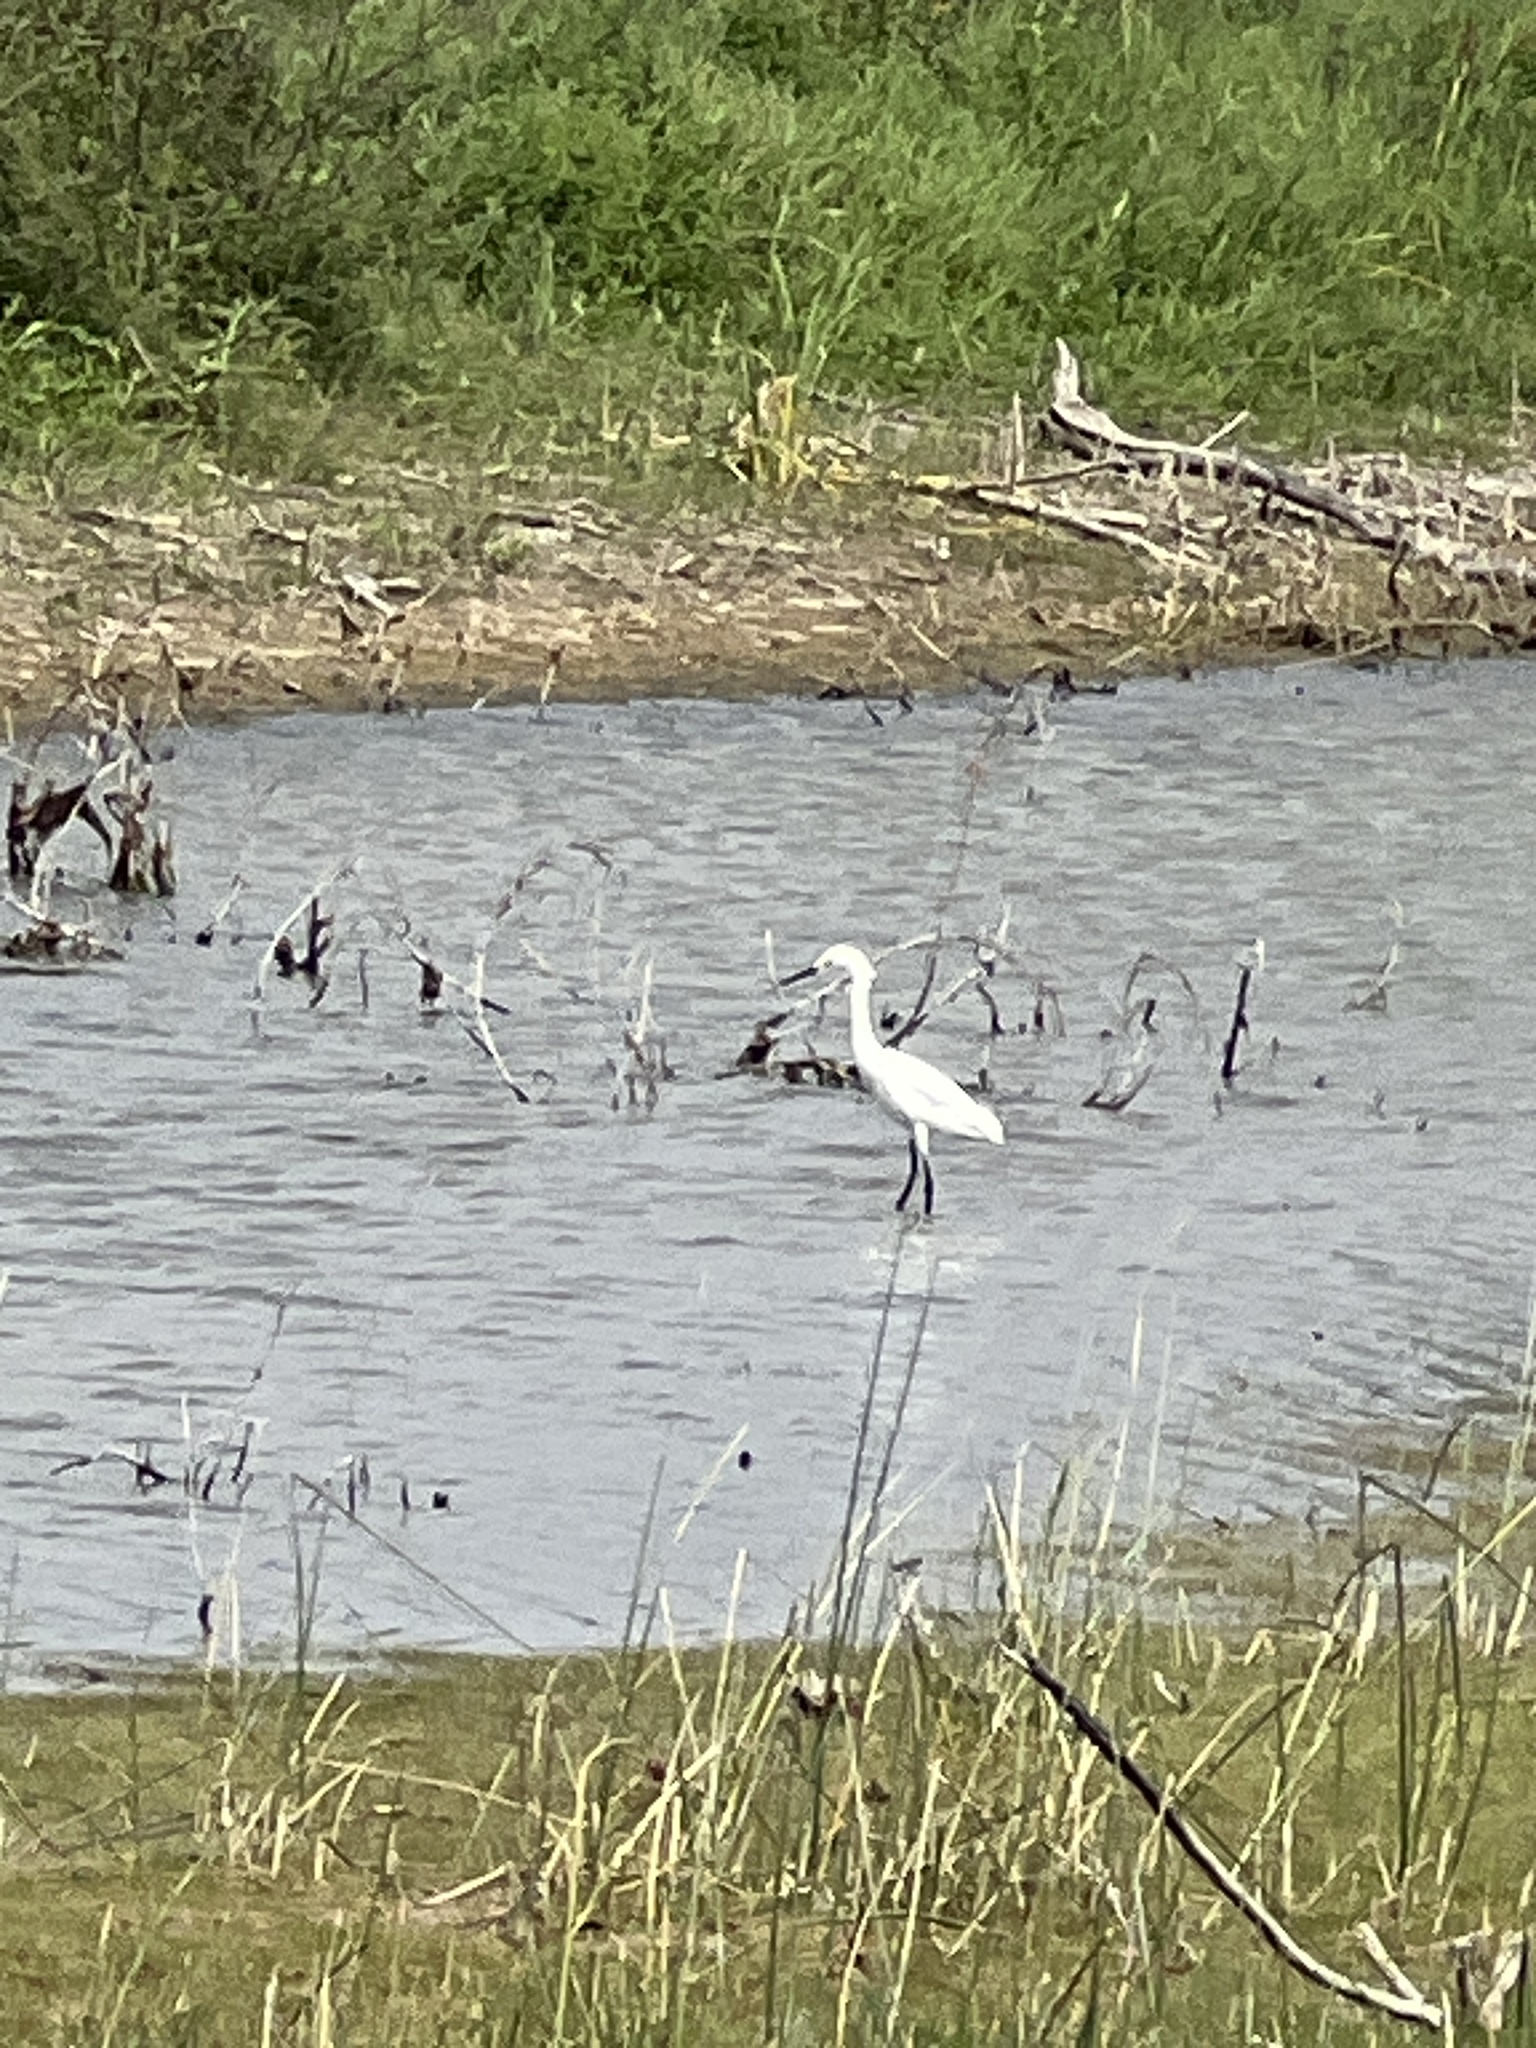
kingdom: Animalia
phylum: Chordata
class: Aves
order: Pelecaniformes
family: Ardeidae
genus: Egretta
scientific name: Egretta thula
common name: Snowy egret
